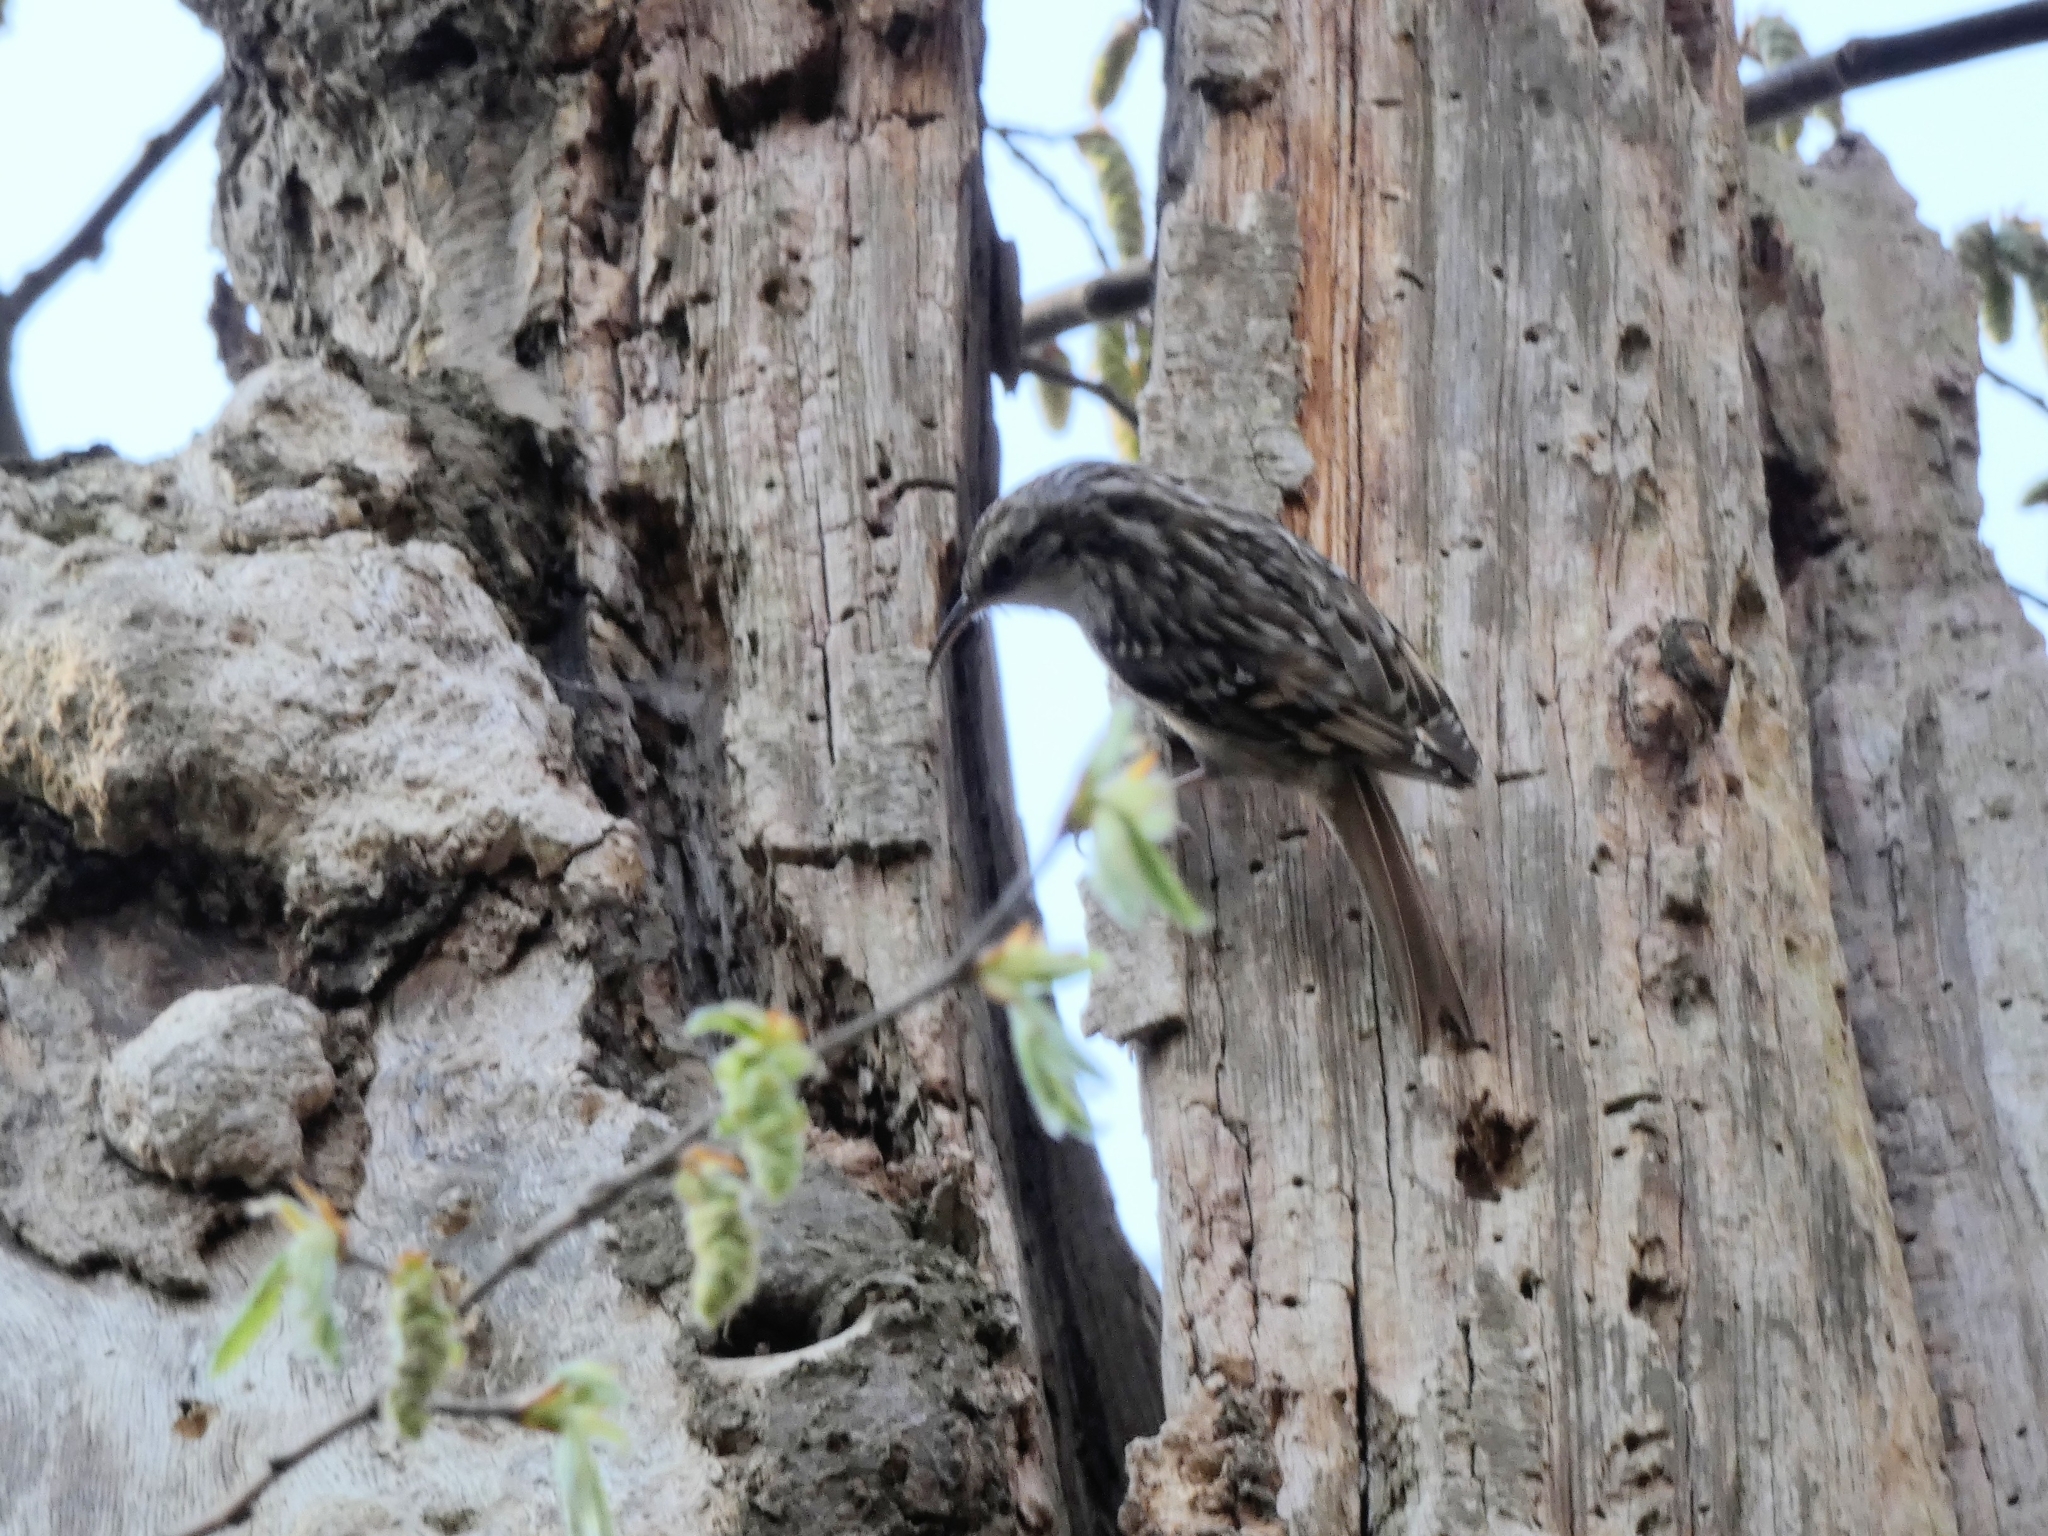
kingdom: Animalia
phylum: Chordata
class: Aves
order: Passeriformes
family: Certhiidae
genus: Certhia
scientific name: Certhia familiaris
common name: Eurasian treecreeper
